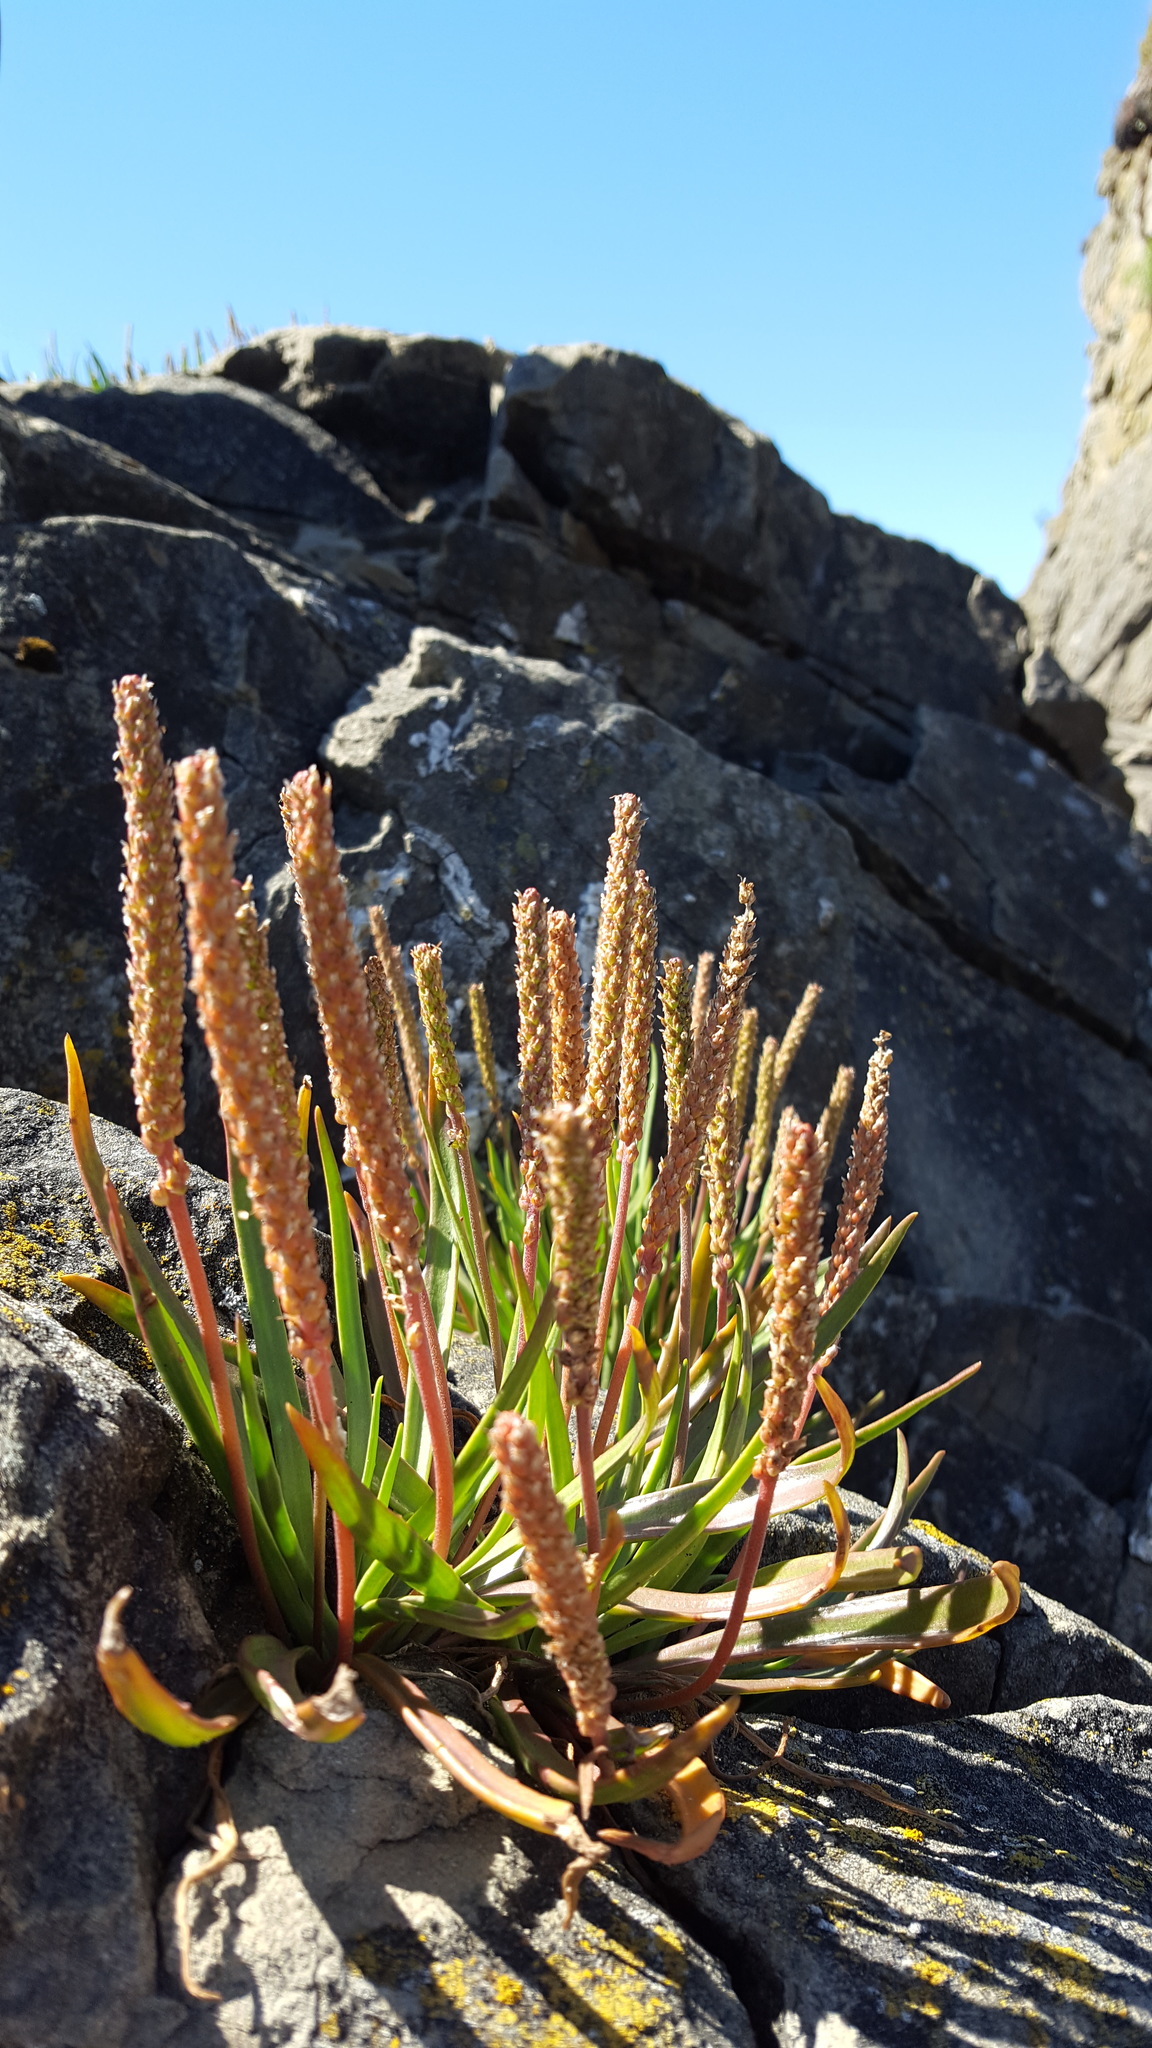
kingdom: Plantae
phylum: Tracheophyta
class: Magnoliopsida
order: Lamiales
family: Plantaginaceae
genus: Plantago
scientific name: Plantago maritima
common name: Sea plantain
